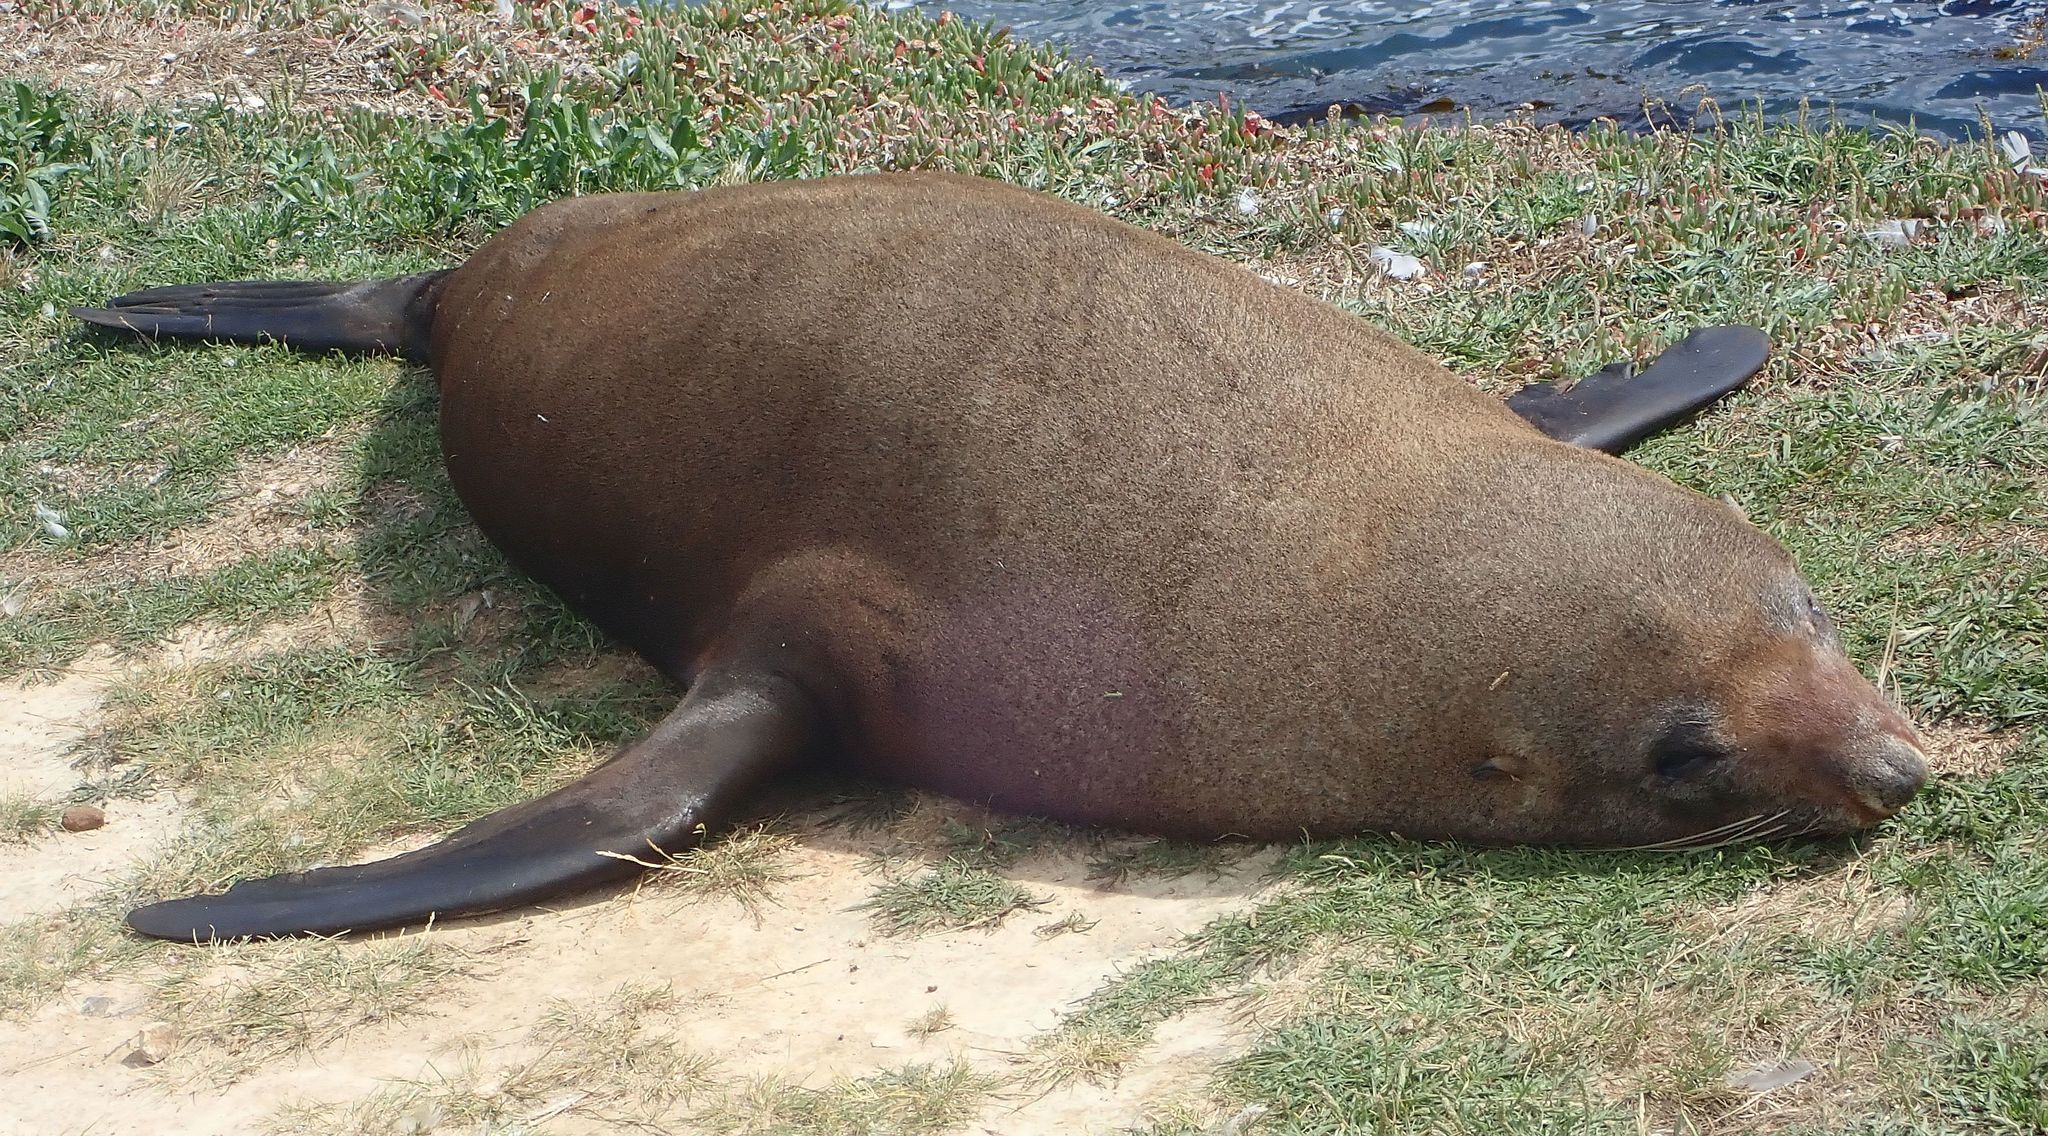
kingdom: Animalia
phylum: Chordata
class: Mammalia
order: Carnivora
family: Otariidae
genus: Arctocephalus
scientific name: Arctocephalus forsteri
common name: New zealand fur seal
